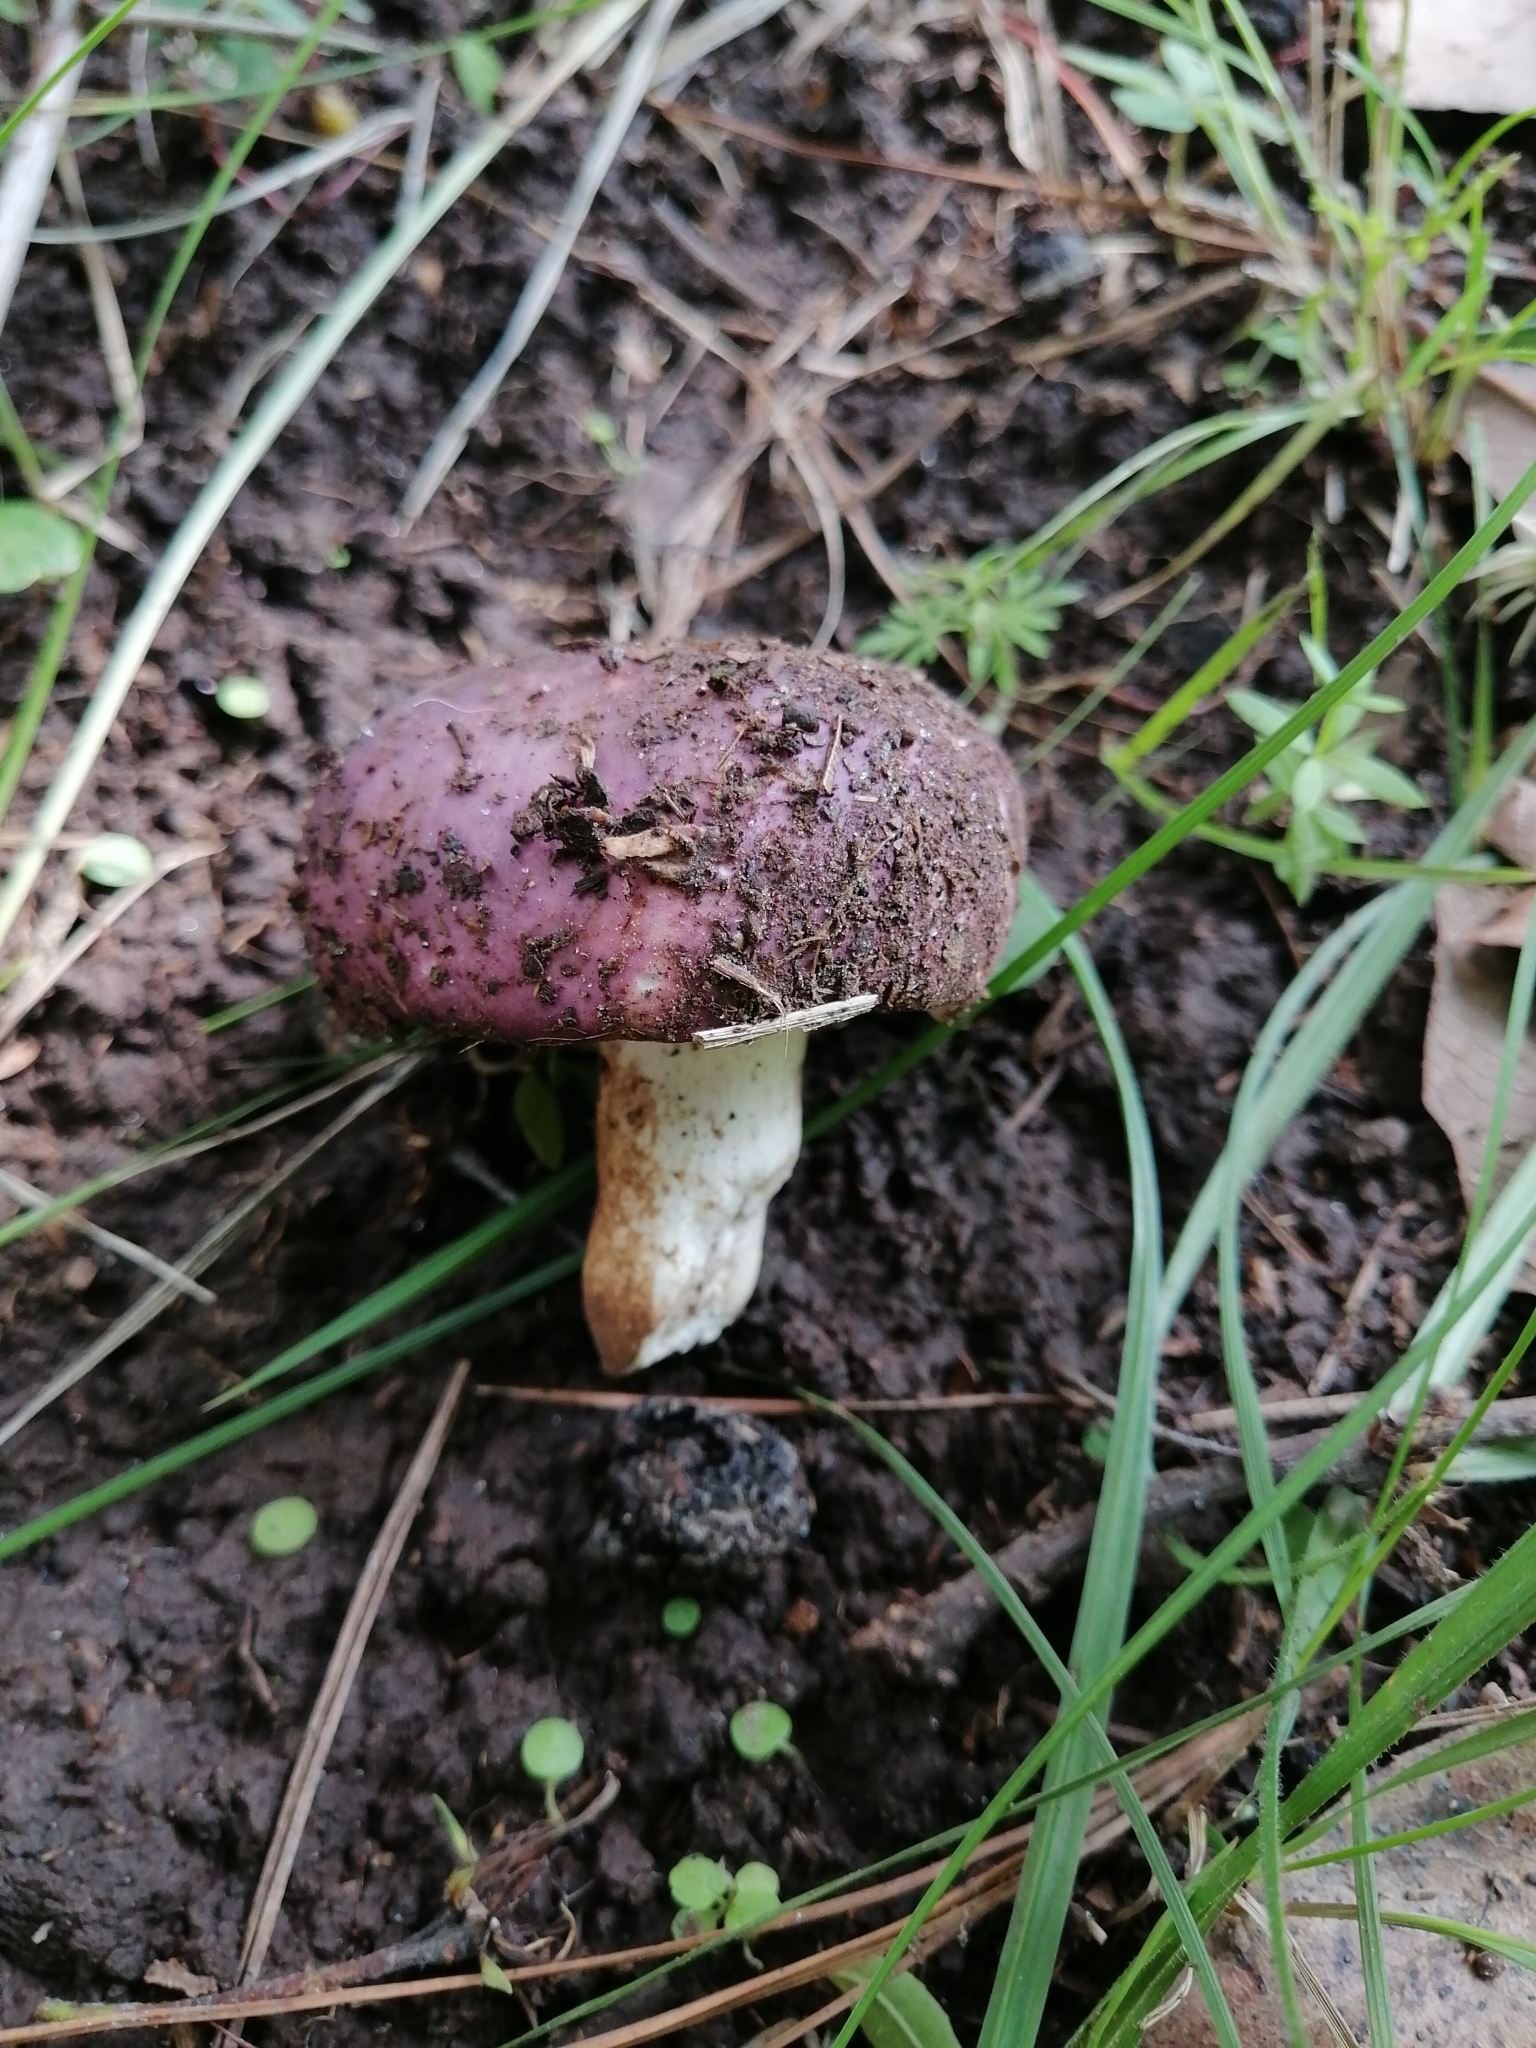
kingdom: Fungi
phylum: Basidiomycota
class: Agaricomycetes
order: Russulales
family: Russulaceae
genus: Russula
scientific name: Russula cyanoxantha
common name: Charcoal burner
